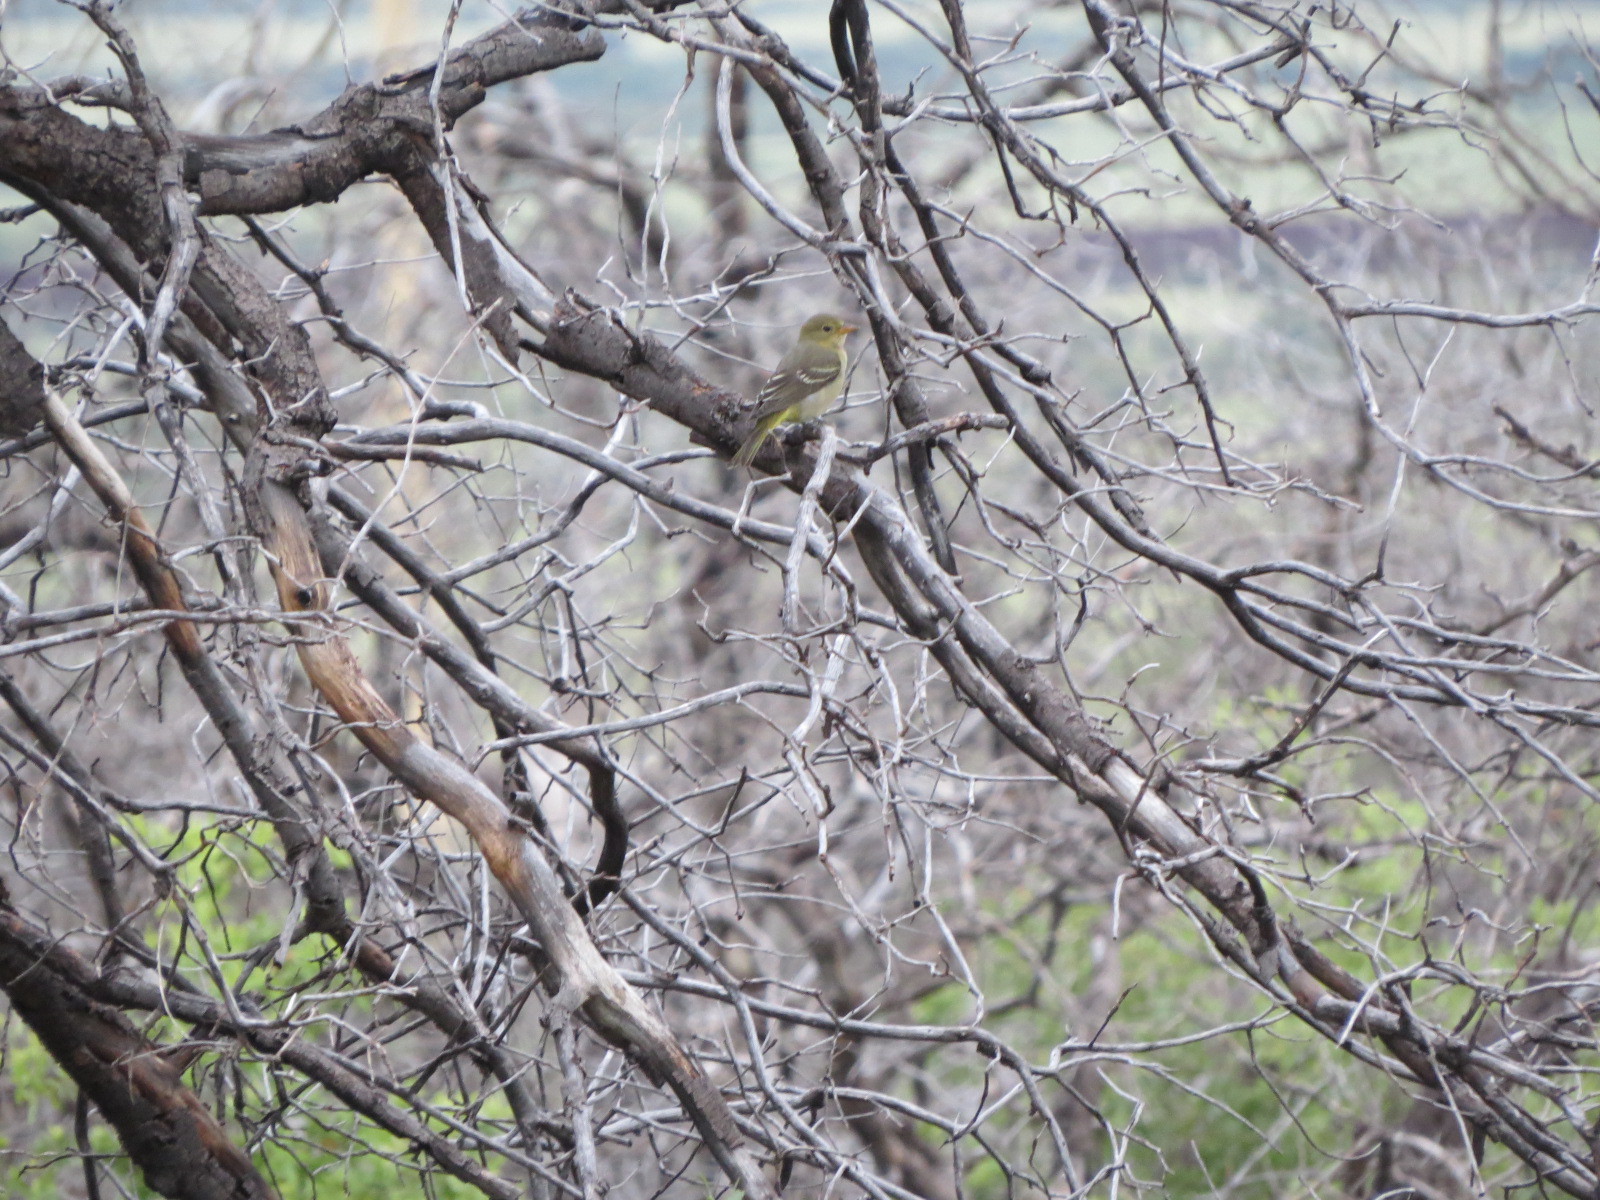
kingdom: Animalia
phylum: Chordata
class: Aves
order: Passeriformes
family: Cardinalidae
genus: Piranga
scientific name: Piranga ludoviciana
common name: Western tanager
